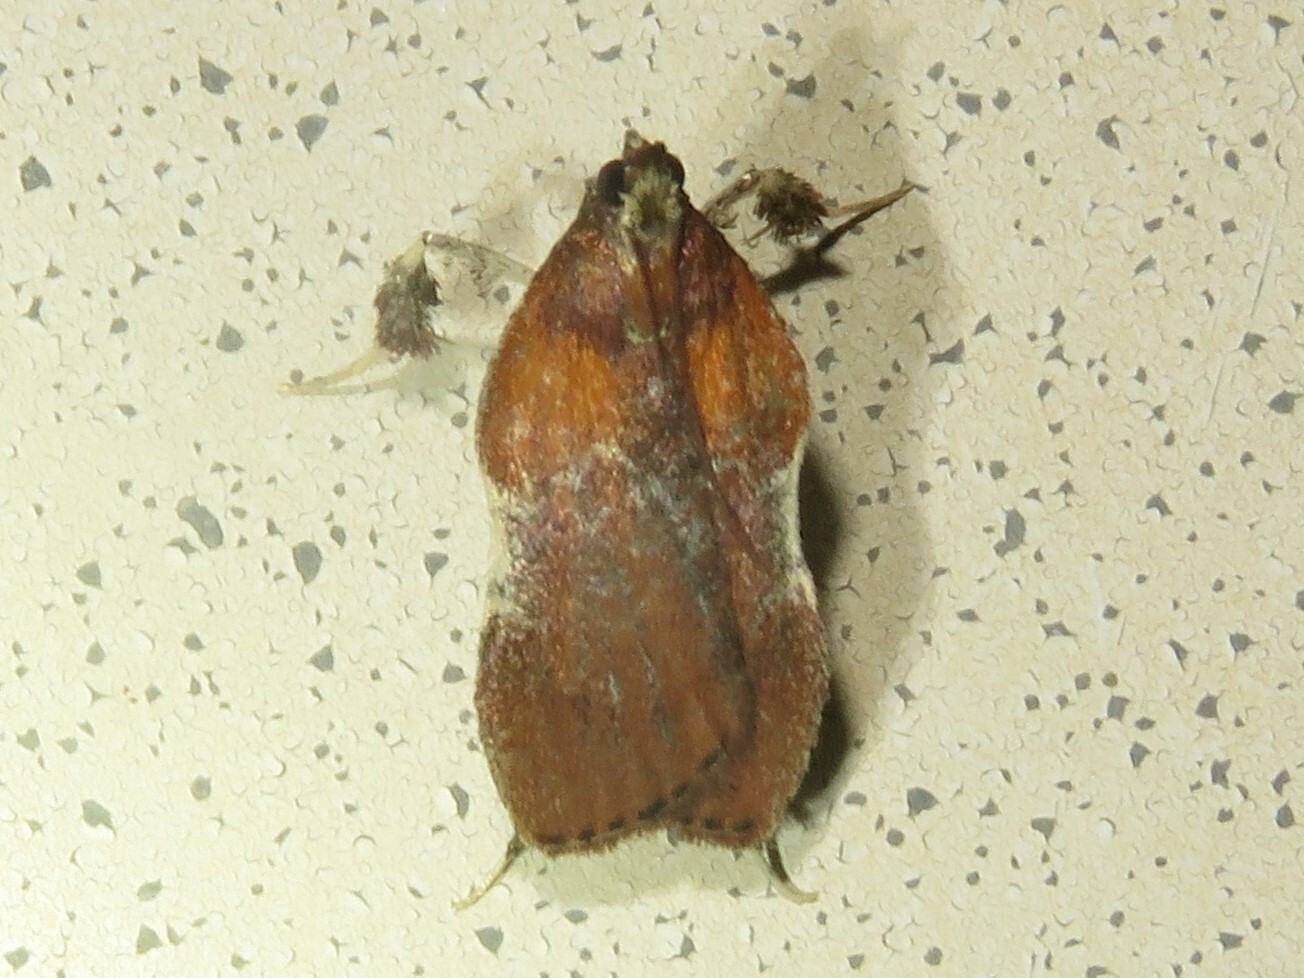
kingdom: Animalia
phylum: Arthropoda
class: Insecta
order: Lepidoptera
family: Pyralidae
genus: Galasa
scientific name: Galasa nigrinodis
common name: Boxwood leaftier moth
